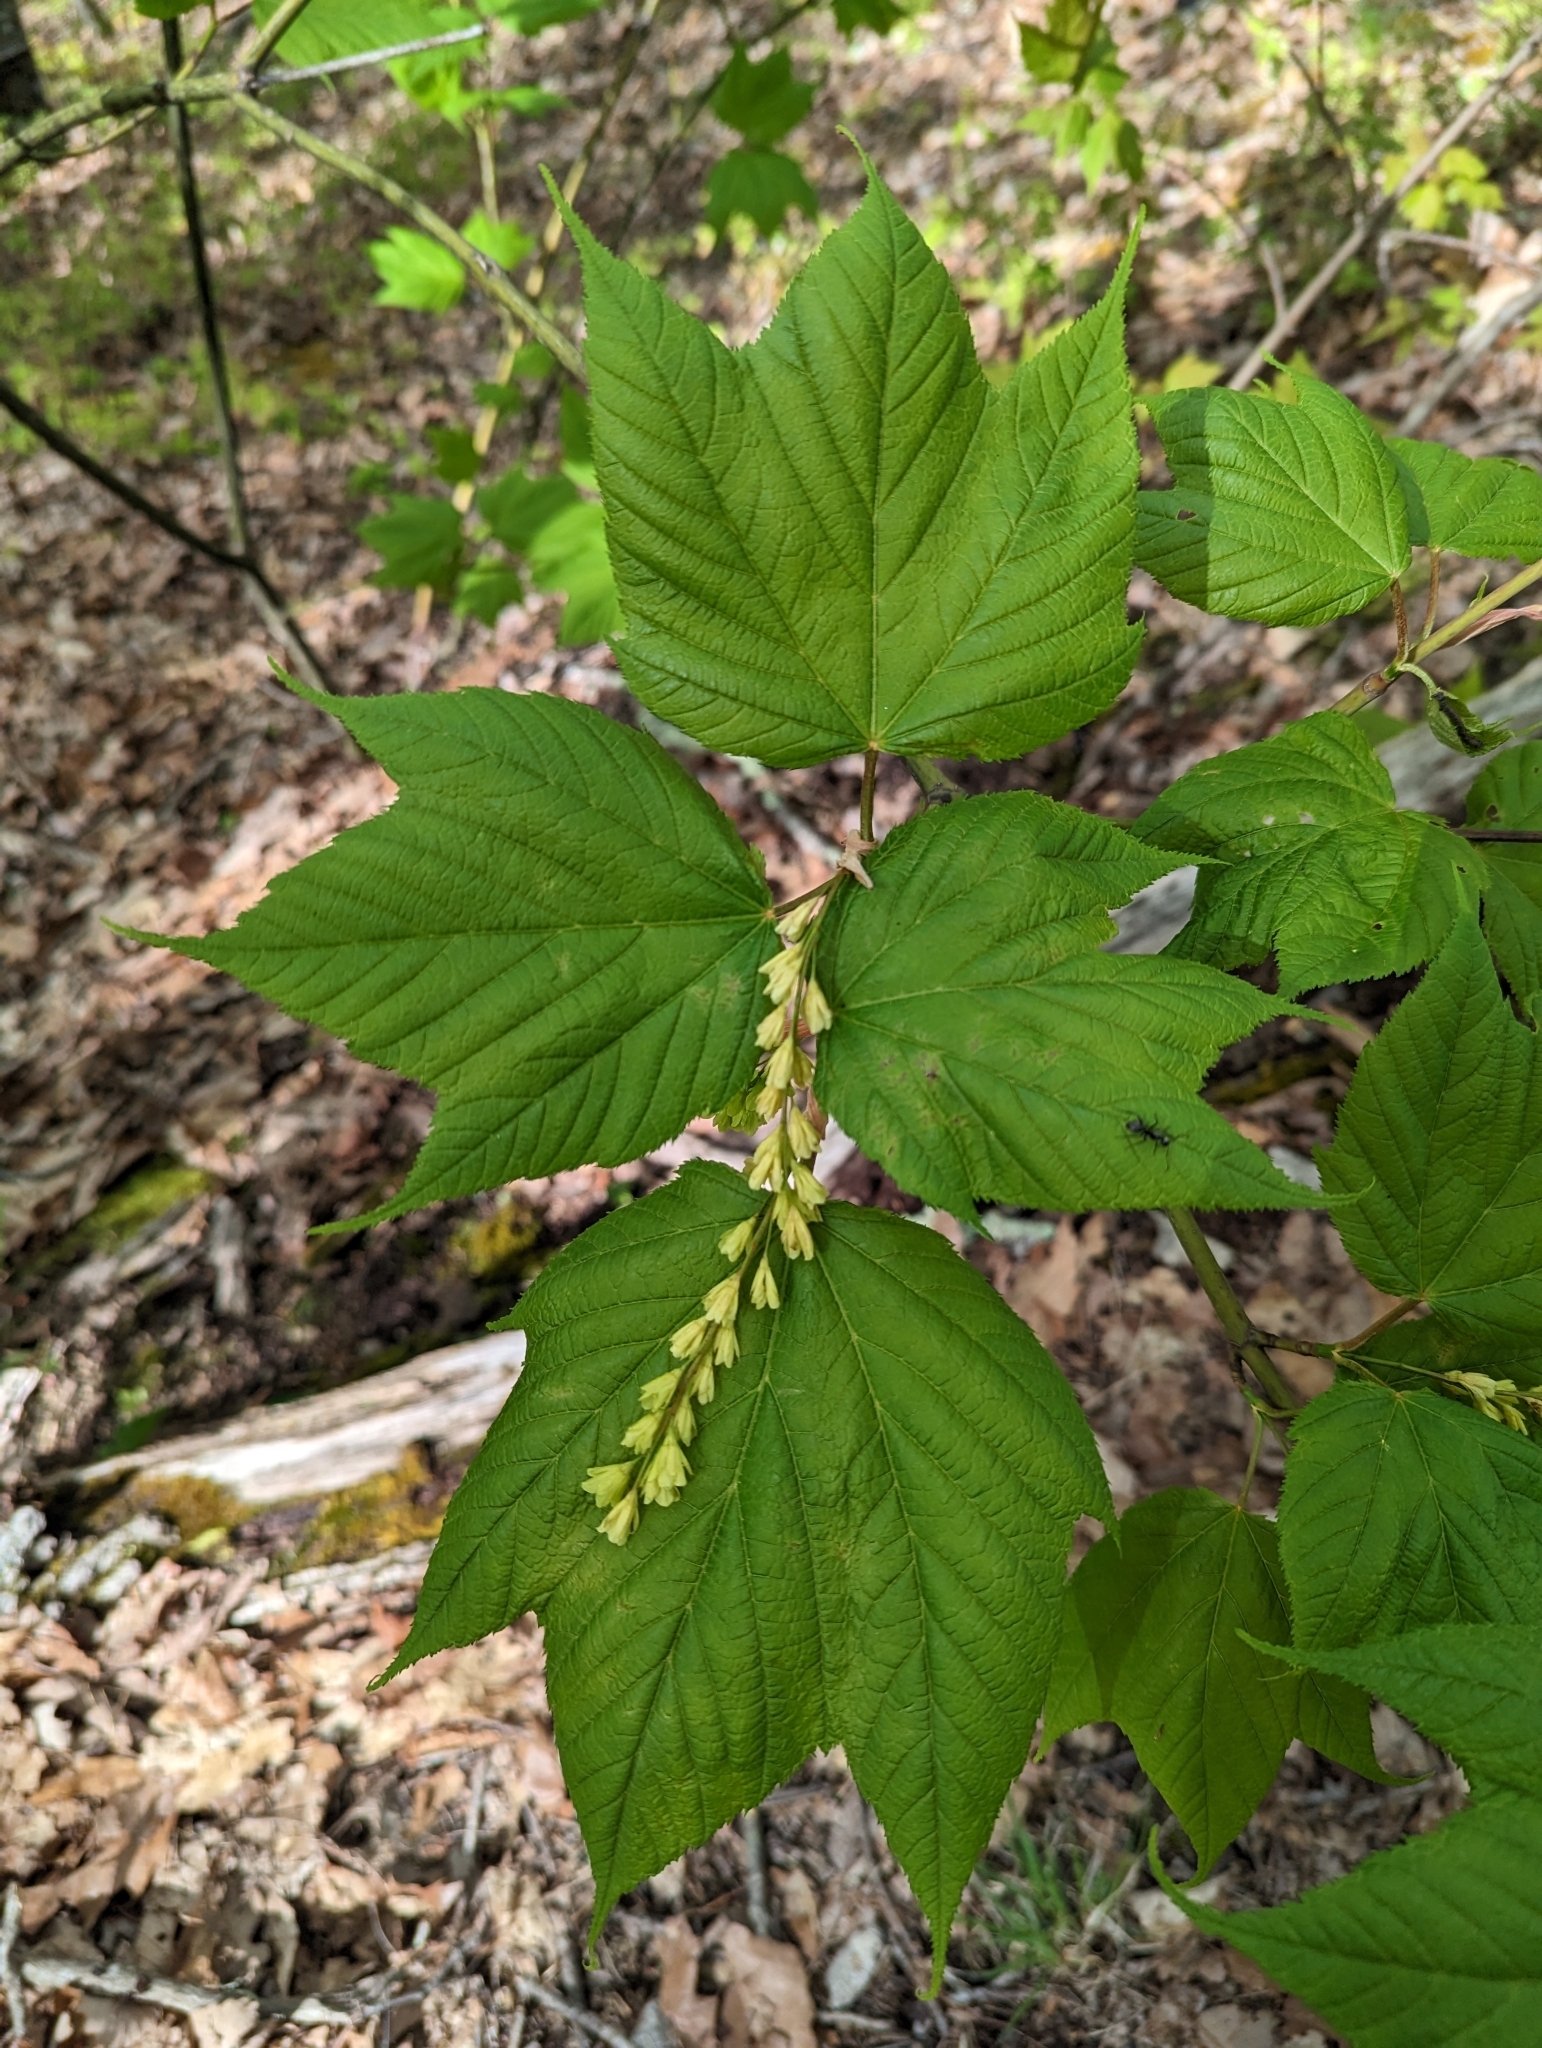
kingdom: Plantae
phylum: Tracheophyta
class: Magnoliopsida
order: Sapindales
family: Sapindaceae
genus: Acer
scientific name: Acer pensylvanicum
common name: Moosewood
